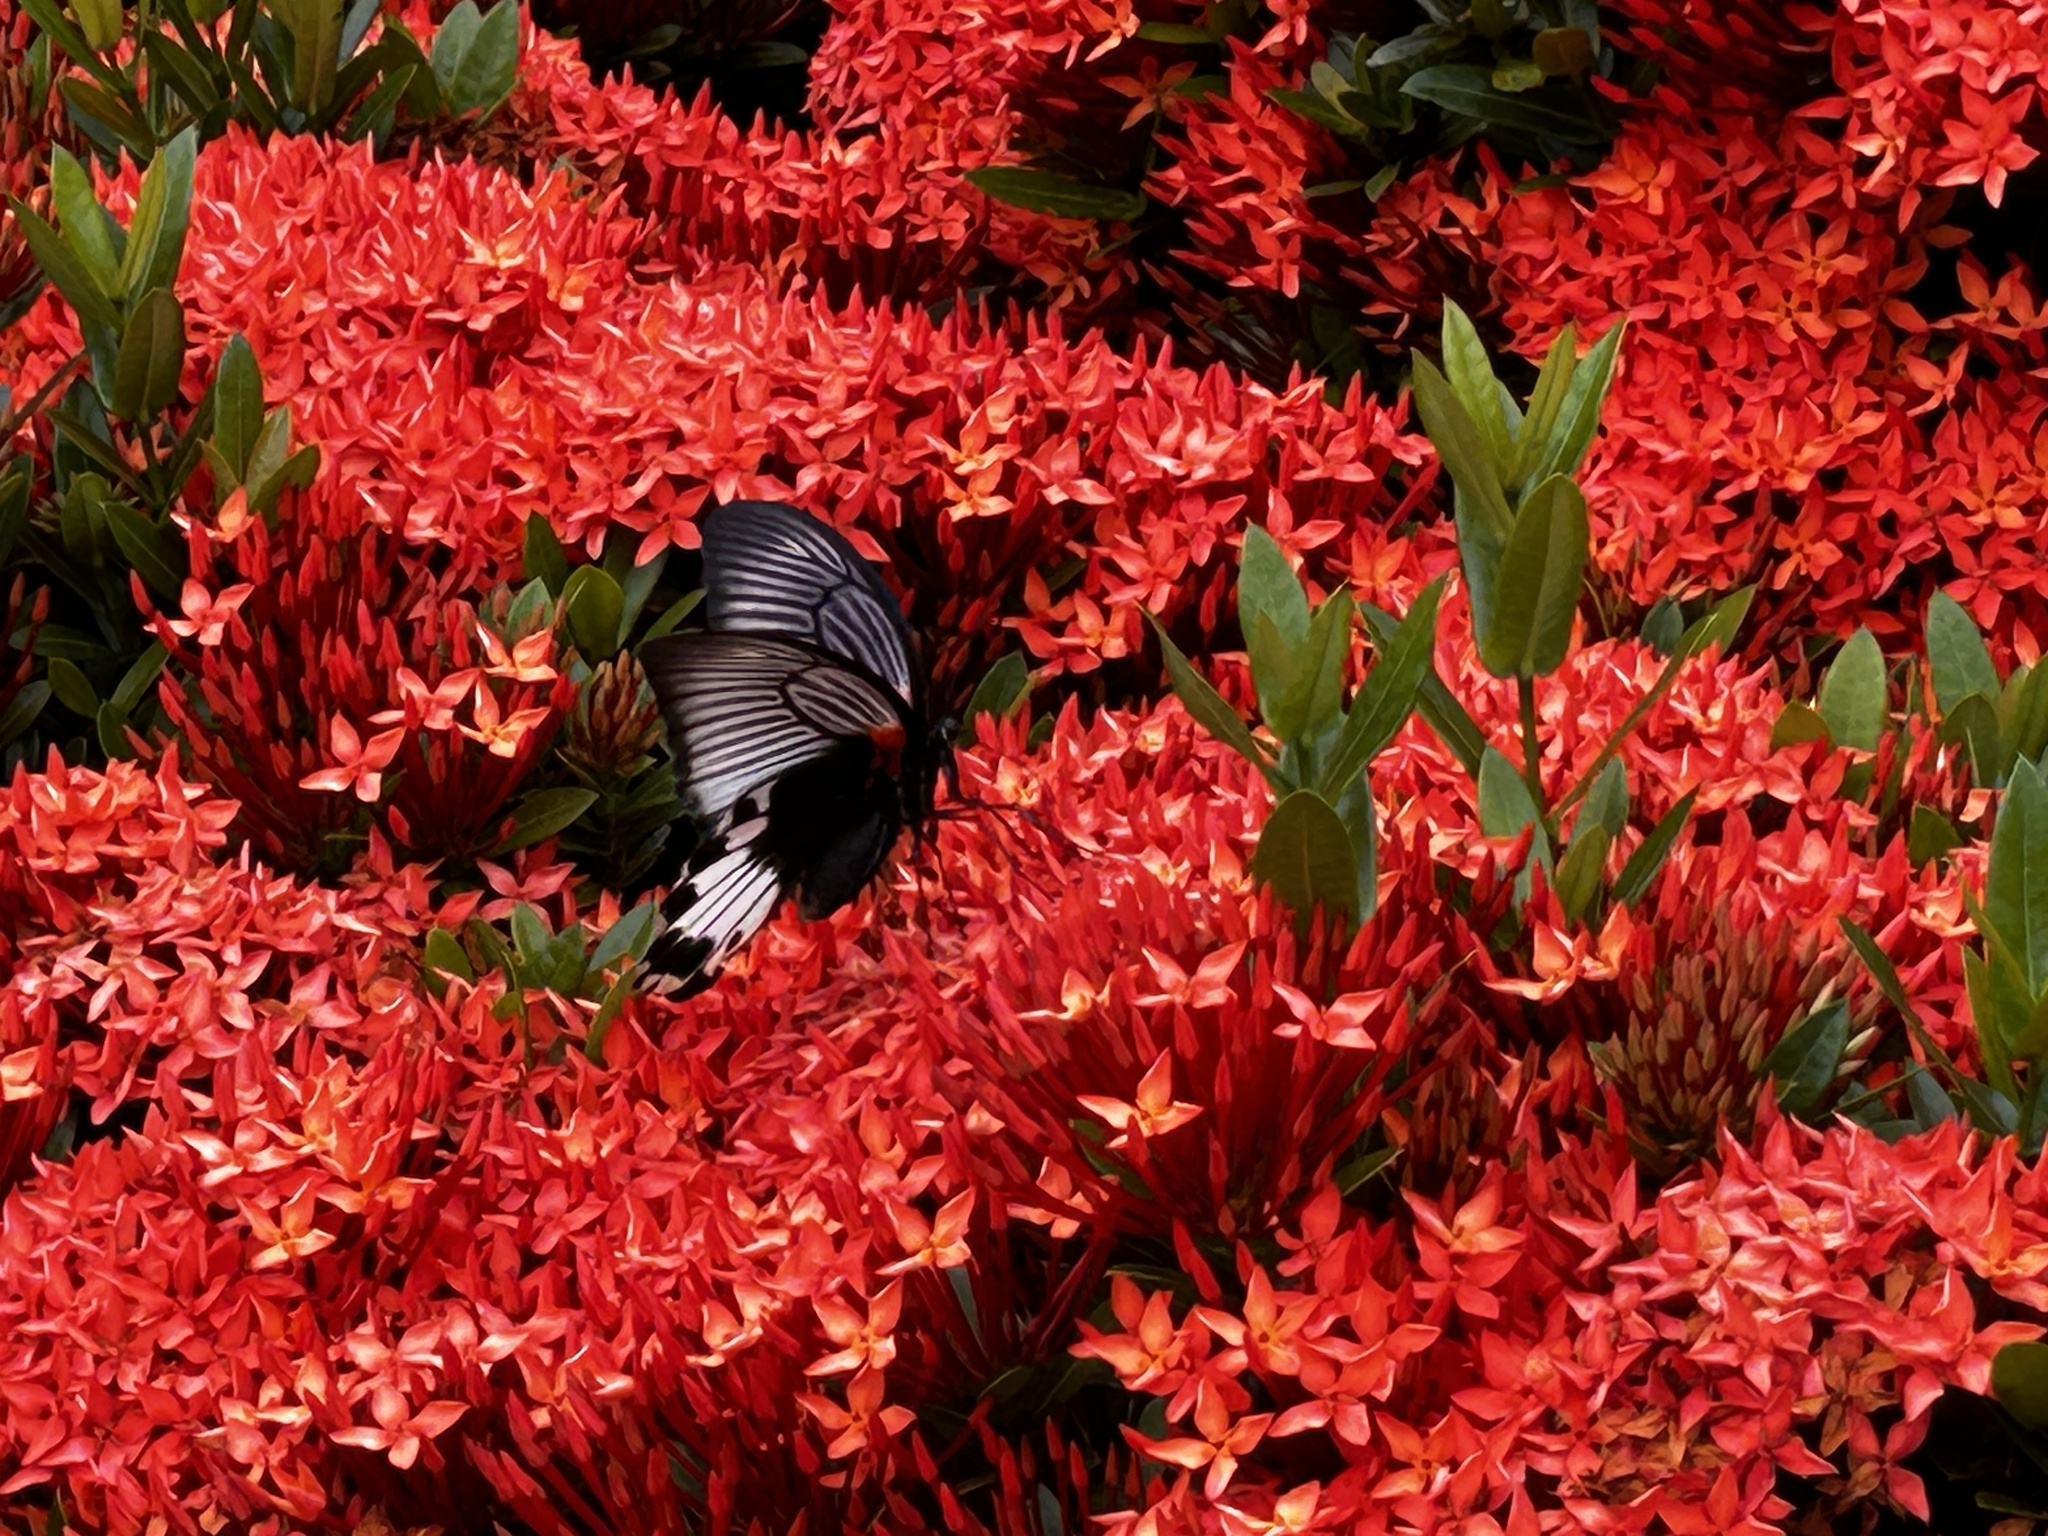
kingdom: Animalia
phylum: Arthropoda
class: Insecta
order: Lepidoptera
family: Papilionidae
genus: Papilio
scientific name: Papilio memnon
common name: Great mormon
